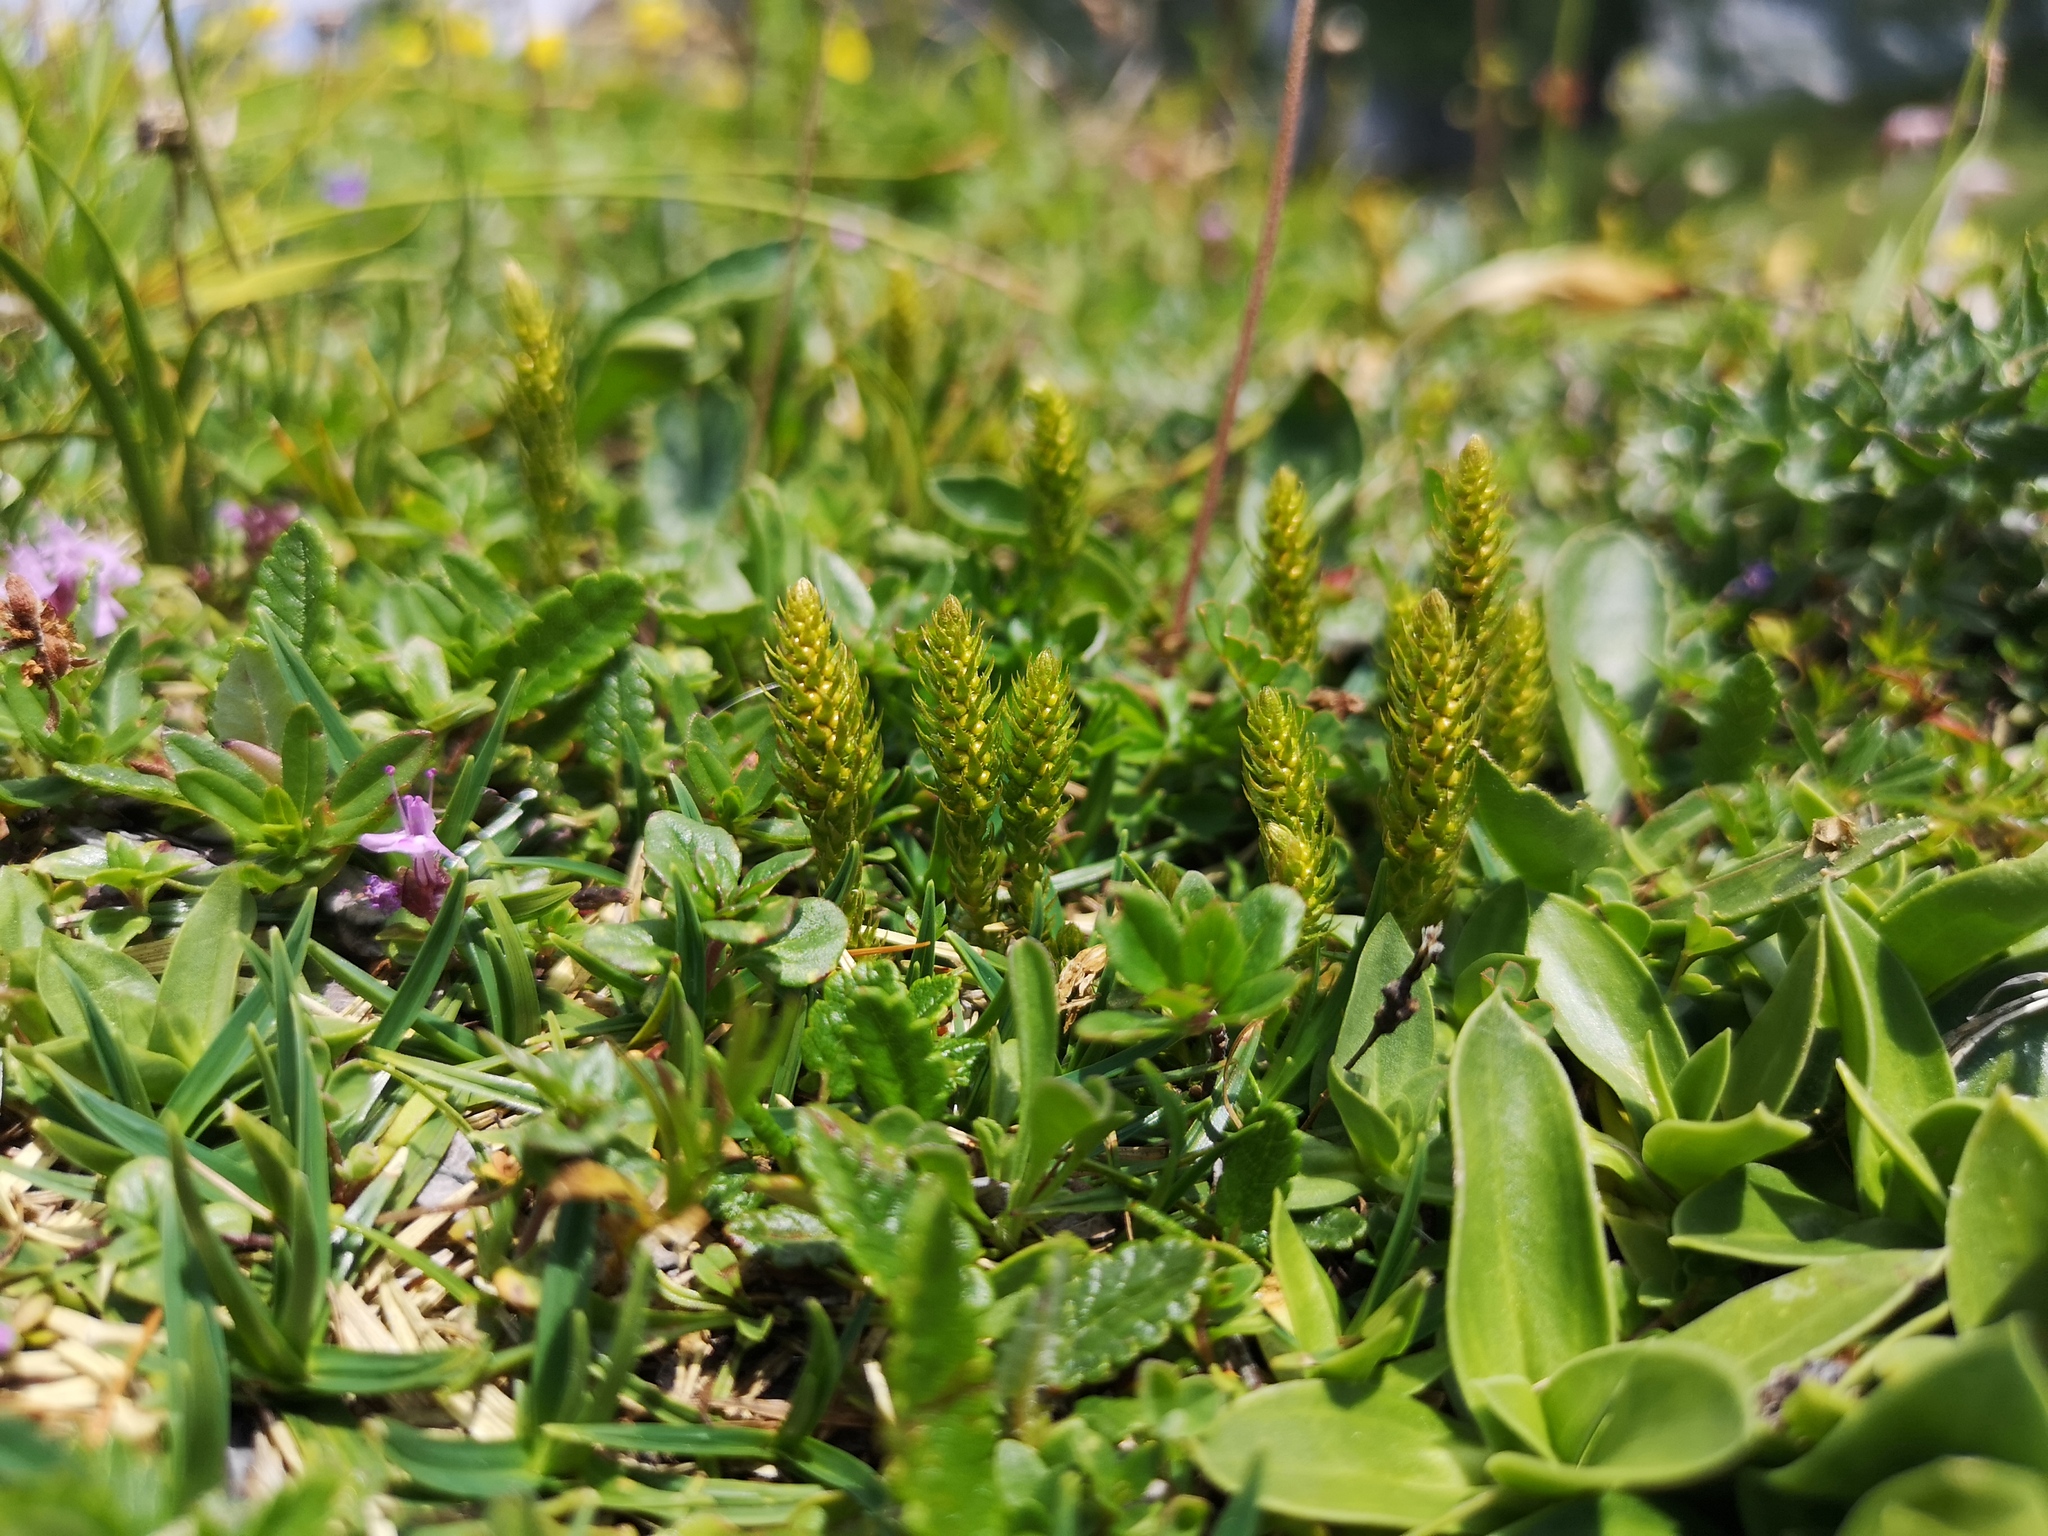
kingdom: Plantae
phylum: Tracheophyta
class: Lycopodiopsida
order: Selaginellales
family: Selaginellaceae
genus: Selaginella
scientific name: Selaginella selaginoides
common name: Prickly mountain-moss
